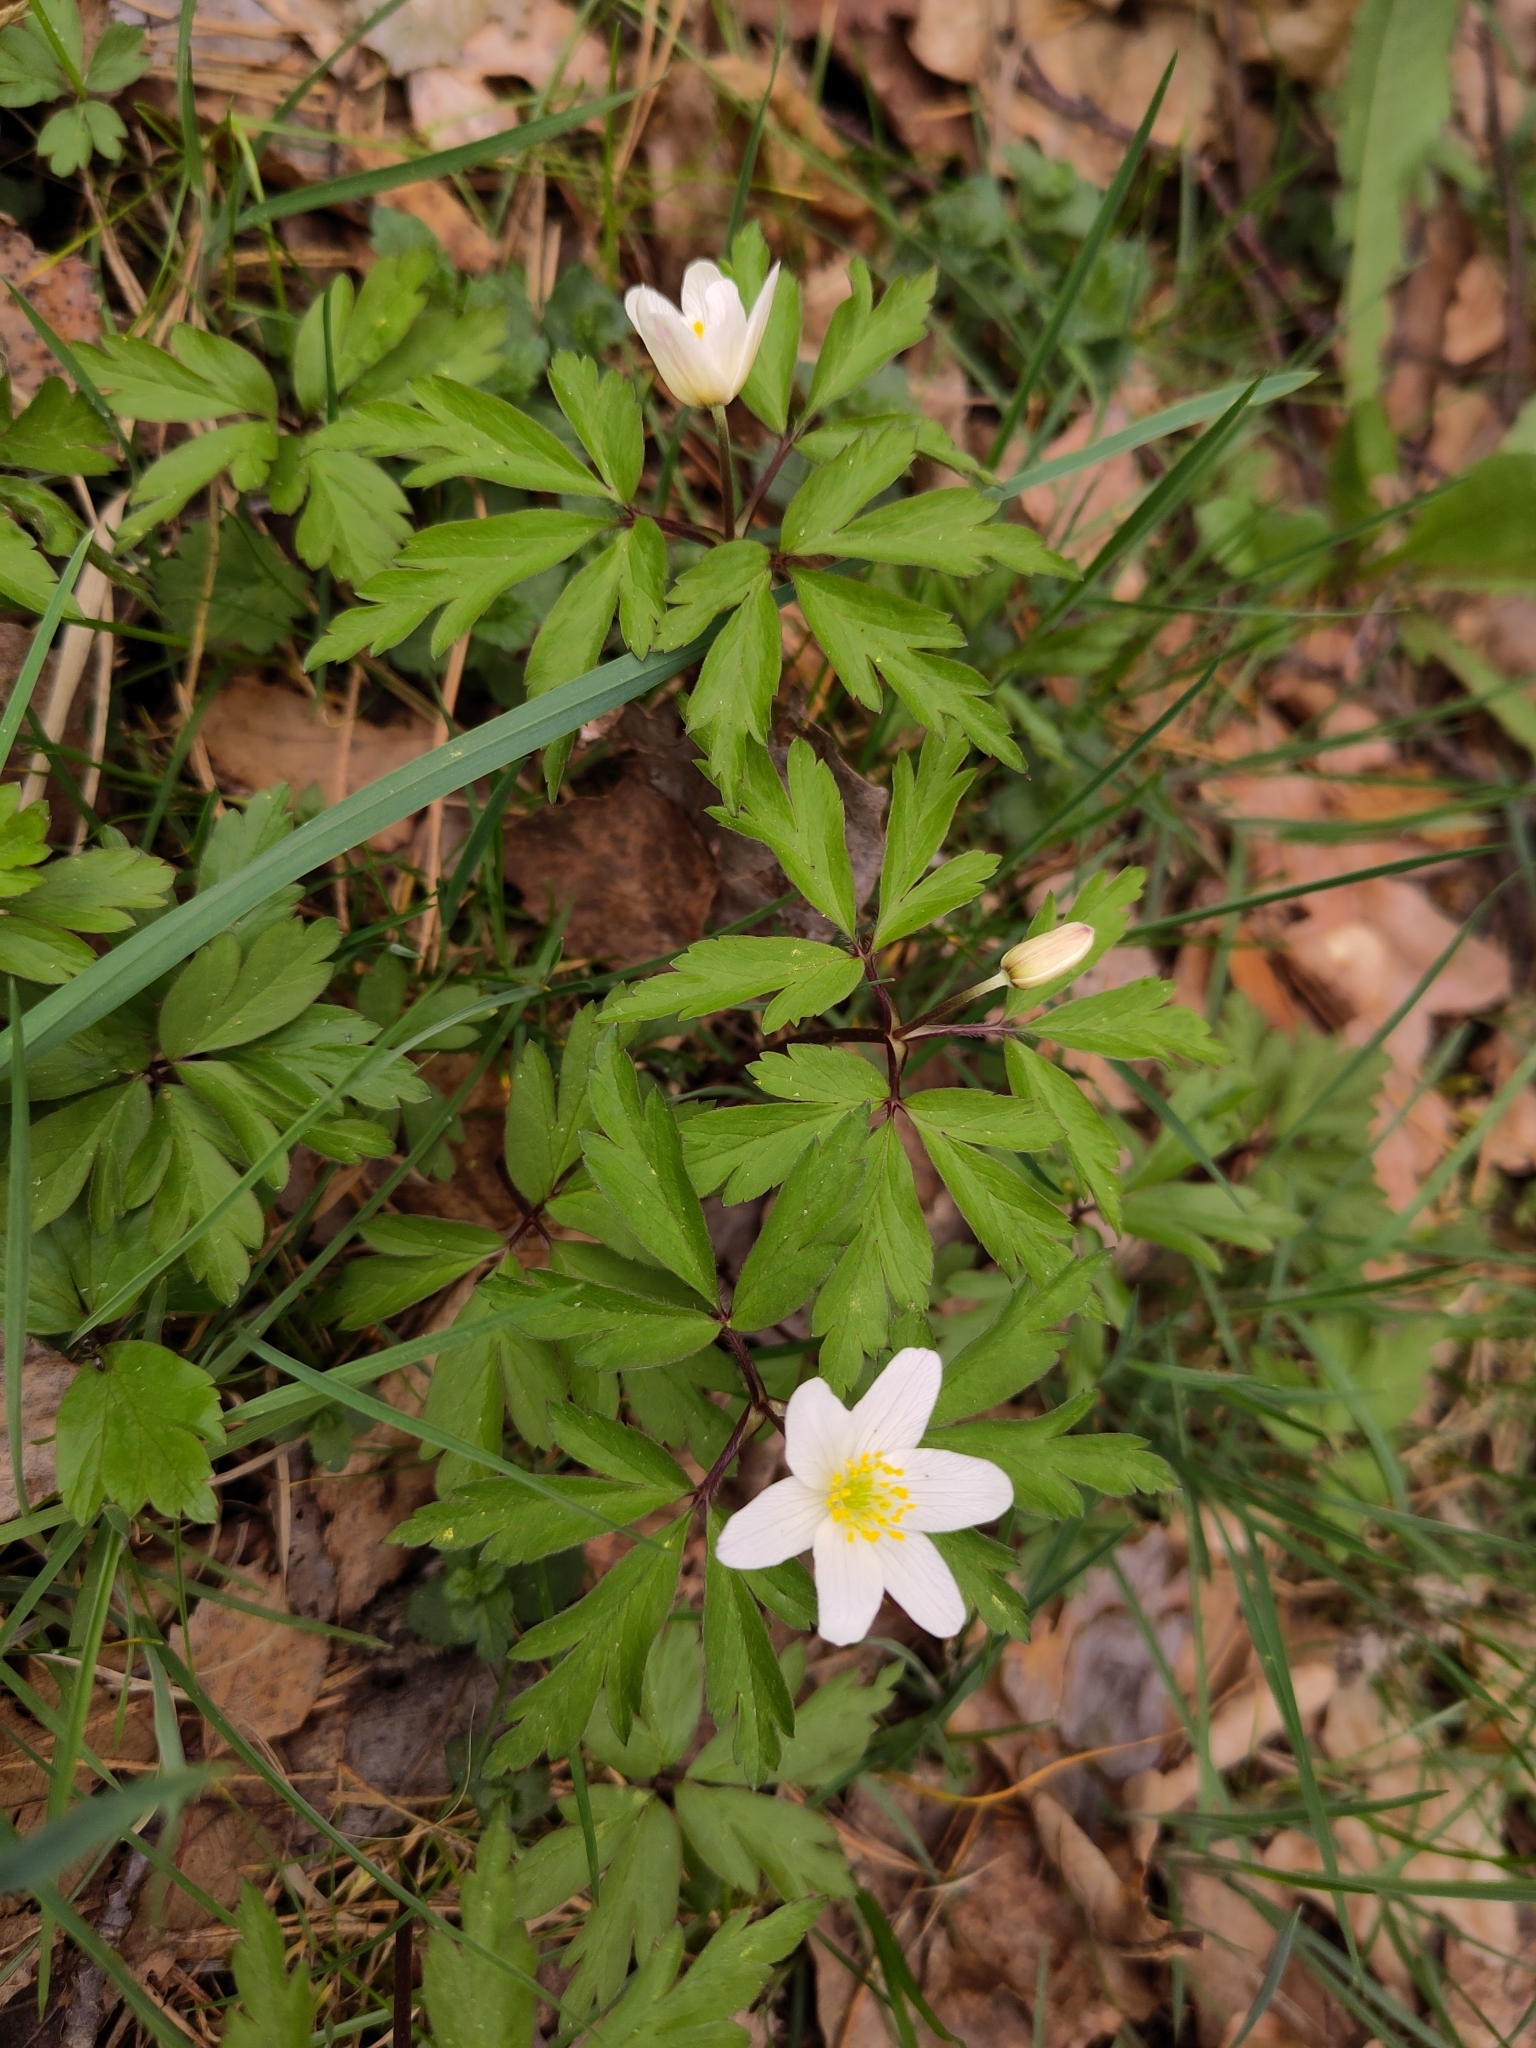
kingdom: Plantae
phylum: Tracheophyta
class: Magnoliopsida
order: Ranunculales
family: Ranunculaceae
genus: Anemone
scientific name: Anemone nemorosa
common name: Wood anemone
